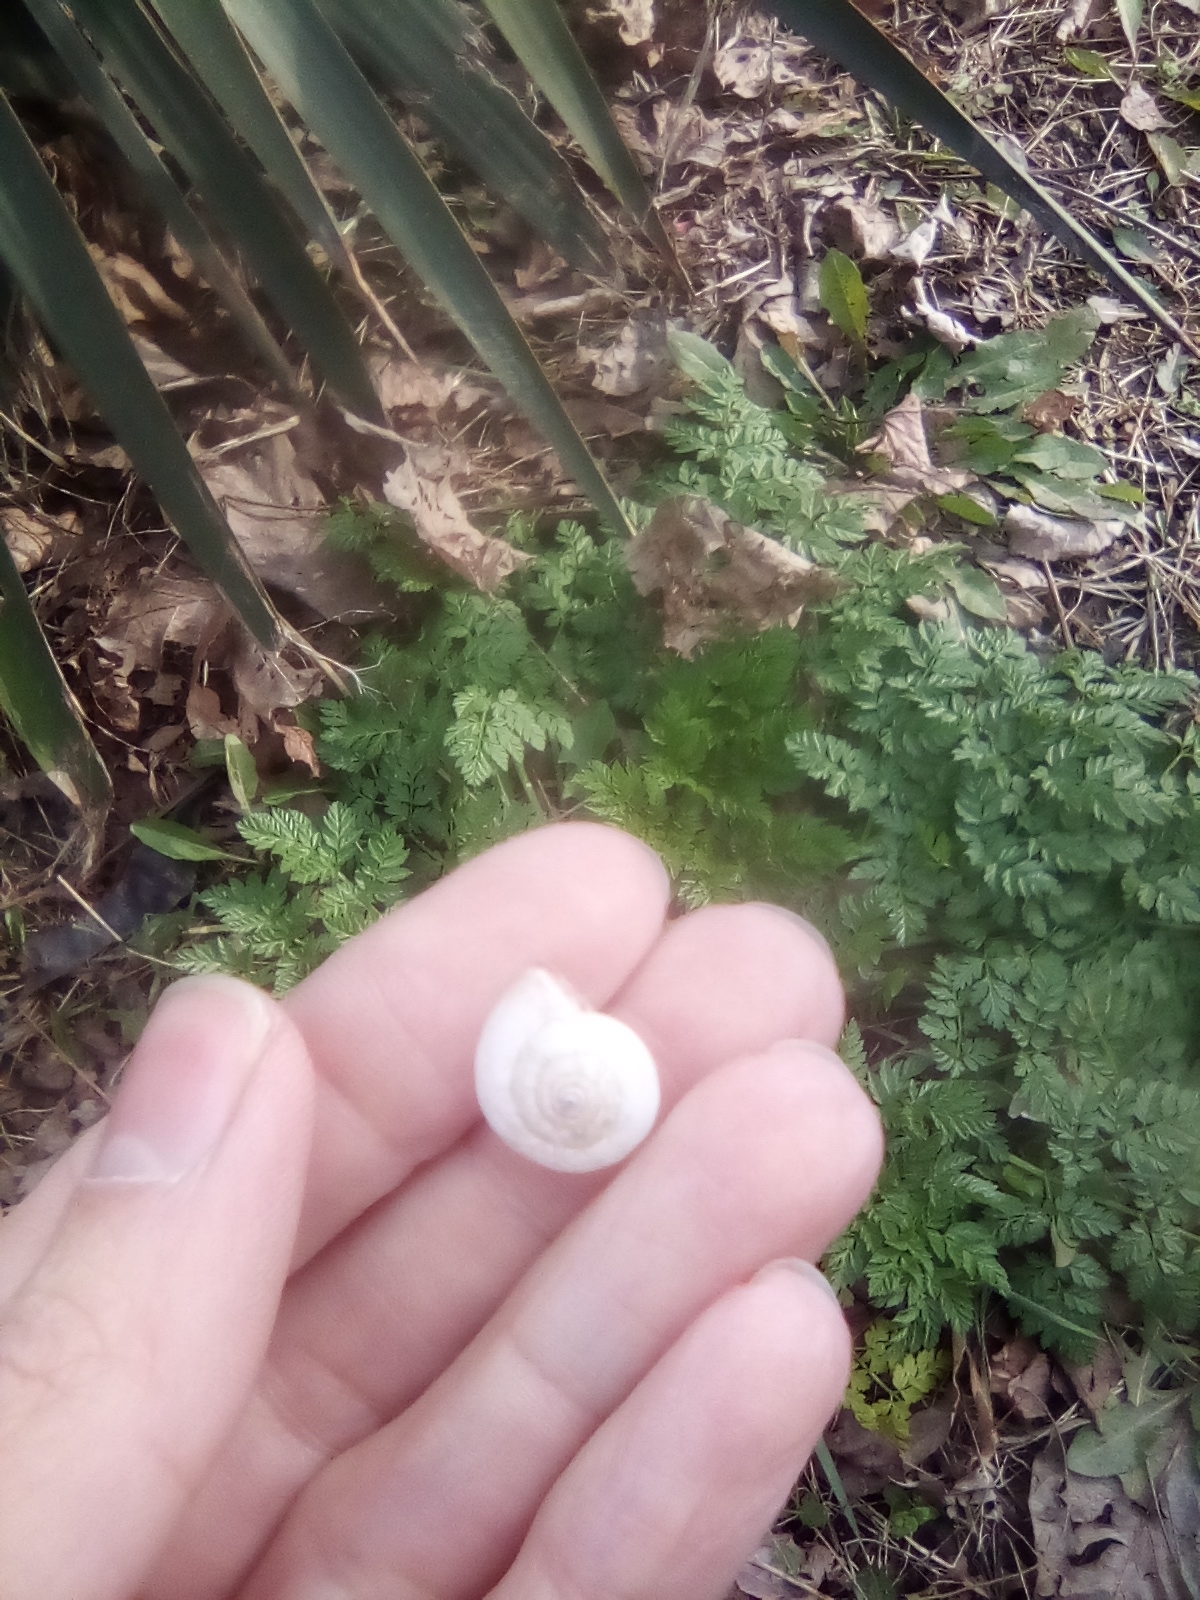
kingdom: Animalia
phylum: Mollusca
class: Gastropoda
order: Stylommatophora
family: Hygromiidae
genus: Monacha
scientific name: Monacha cartusiana
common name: Carthusian snail
